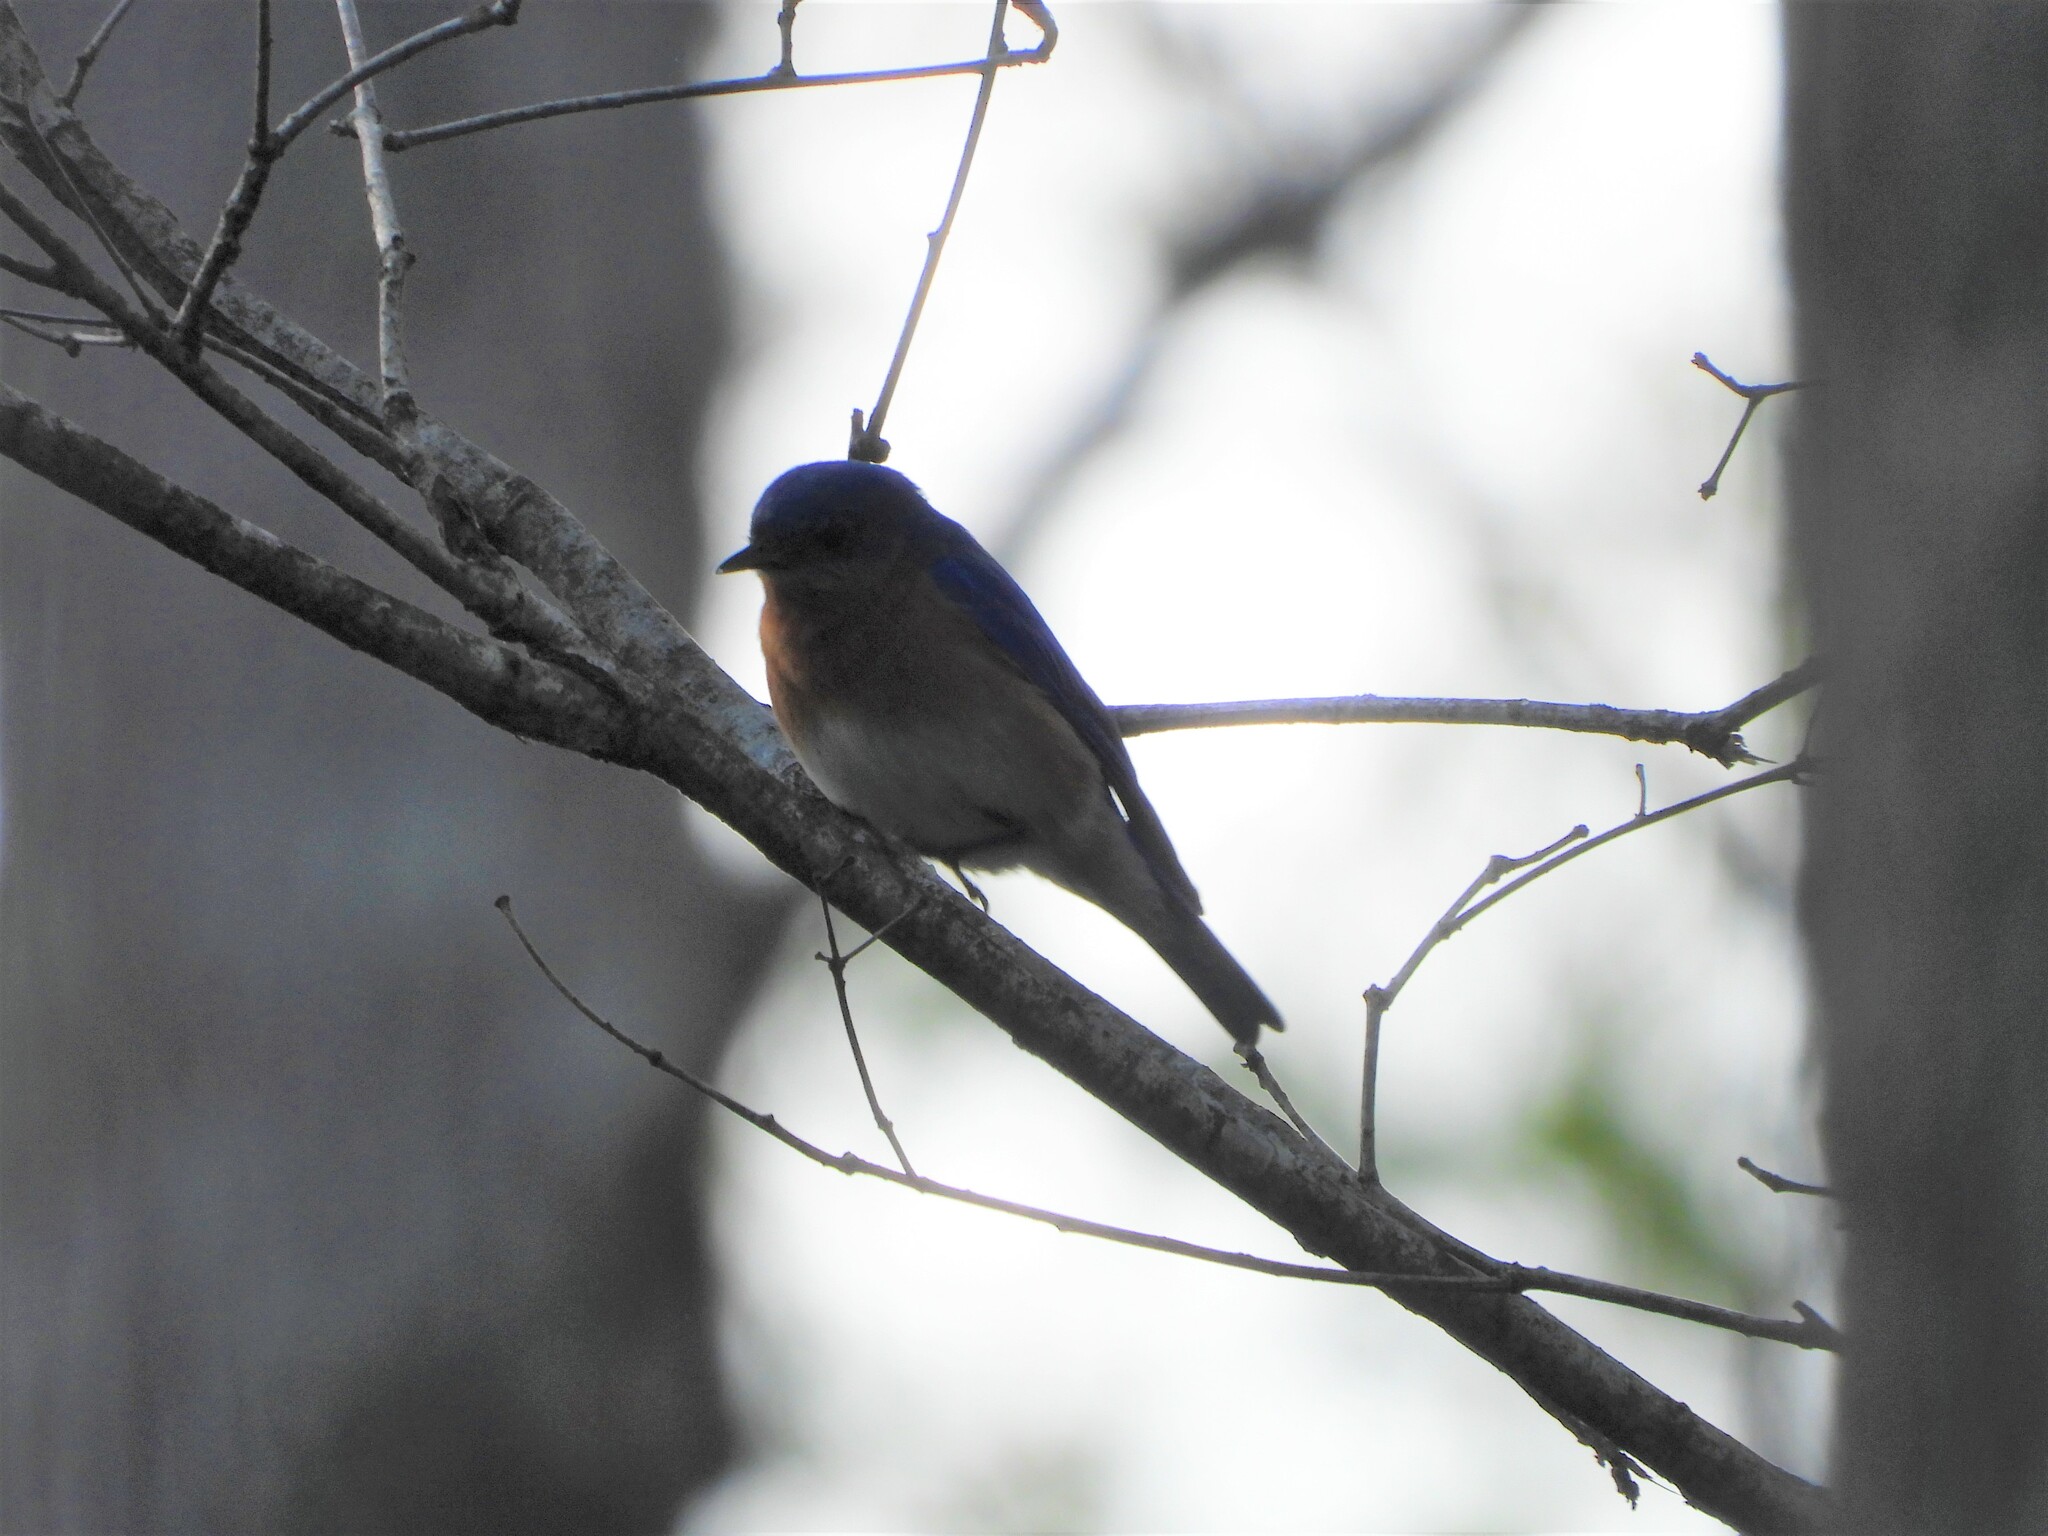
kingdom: Animalia
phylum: Chordata
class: Aves
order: Passeriformes
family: Turdidae
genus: Sialia
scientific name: Sialia sialis
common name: Eastern bluebird
